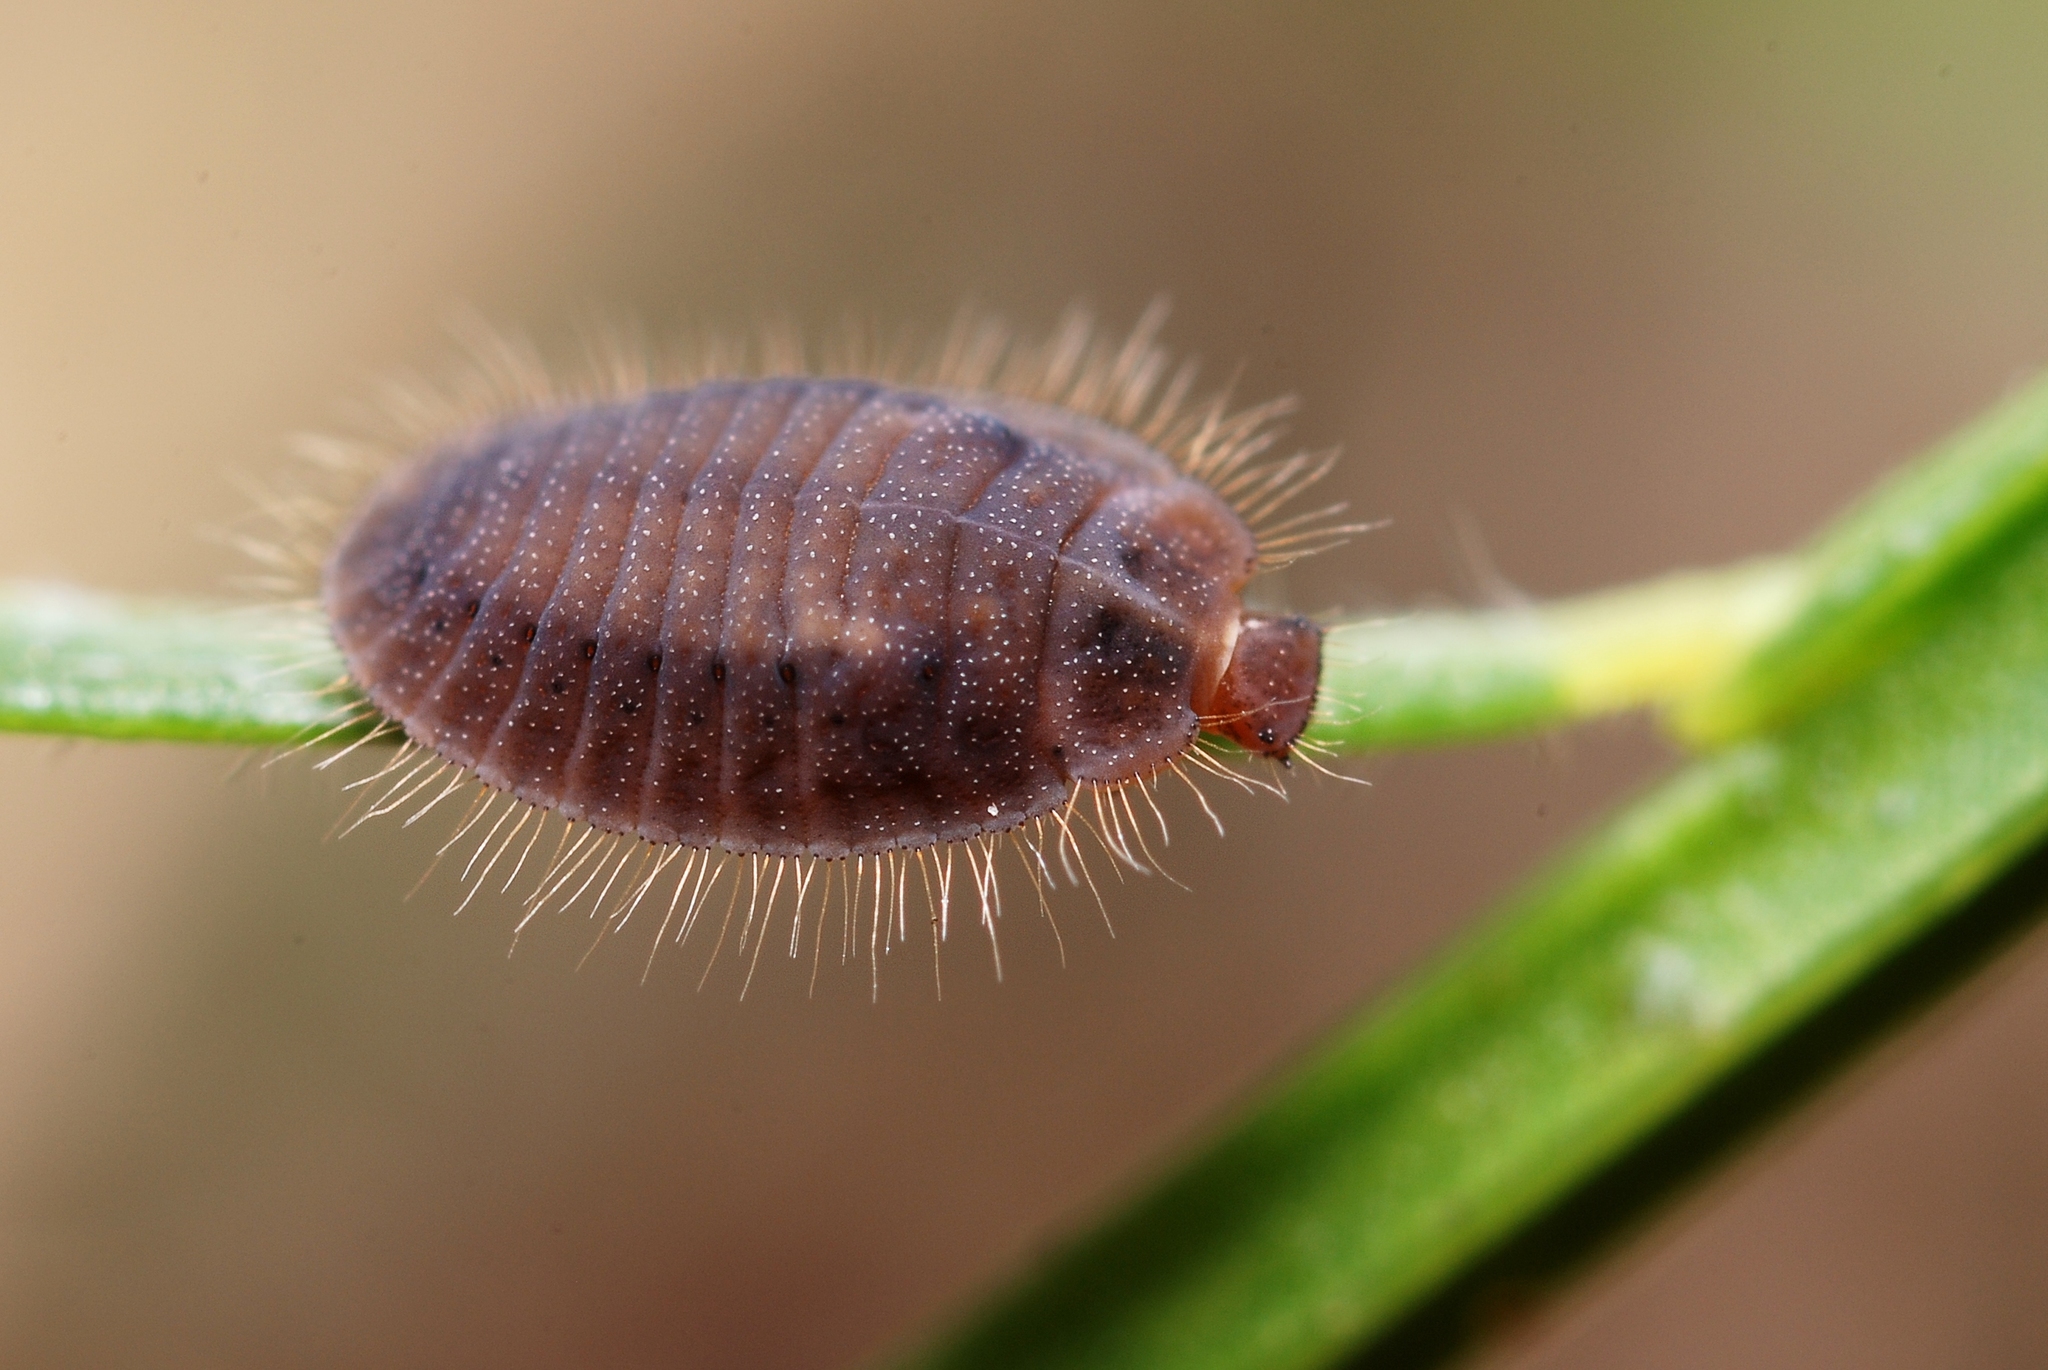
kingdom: Animalia
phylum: Arthropoda
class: Insecta
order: Coleoptera
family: Coccinellidae
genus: Platynaspis
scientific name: Platynaspis luteorubra
